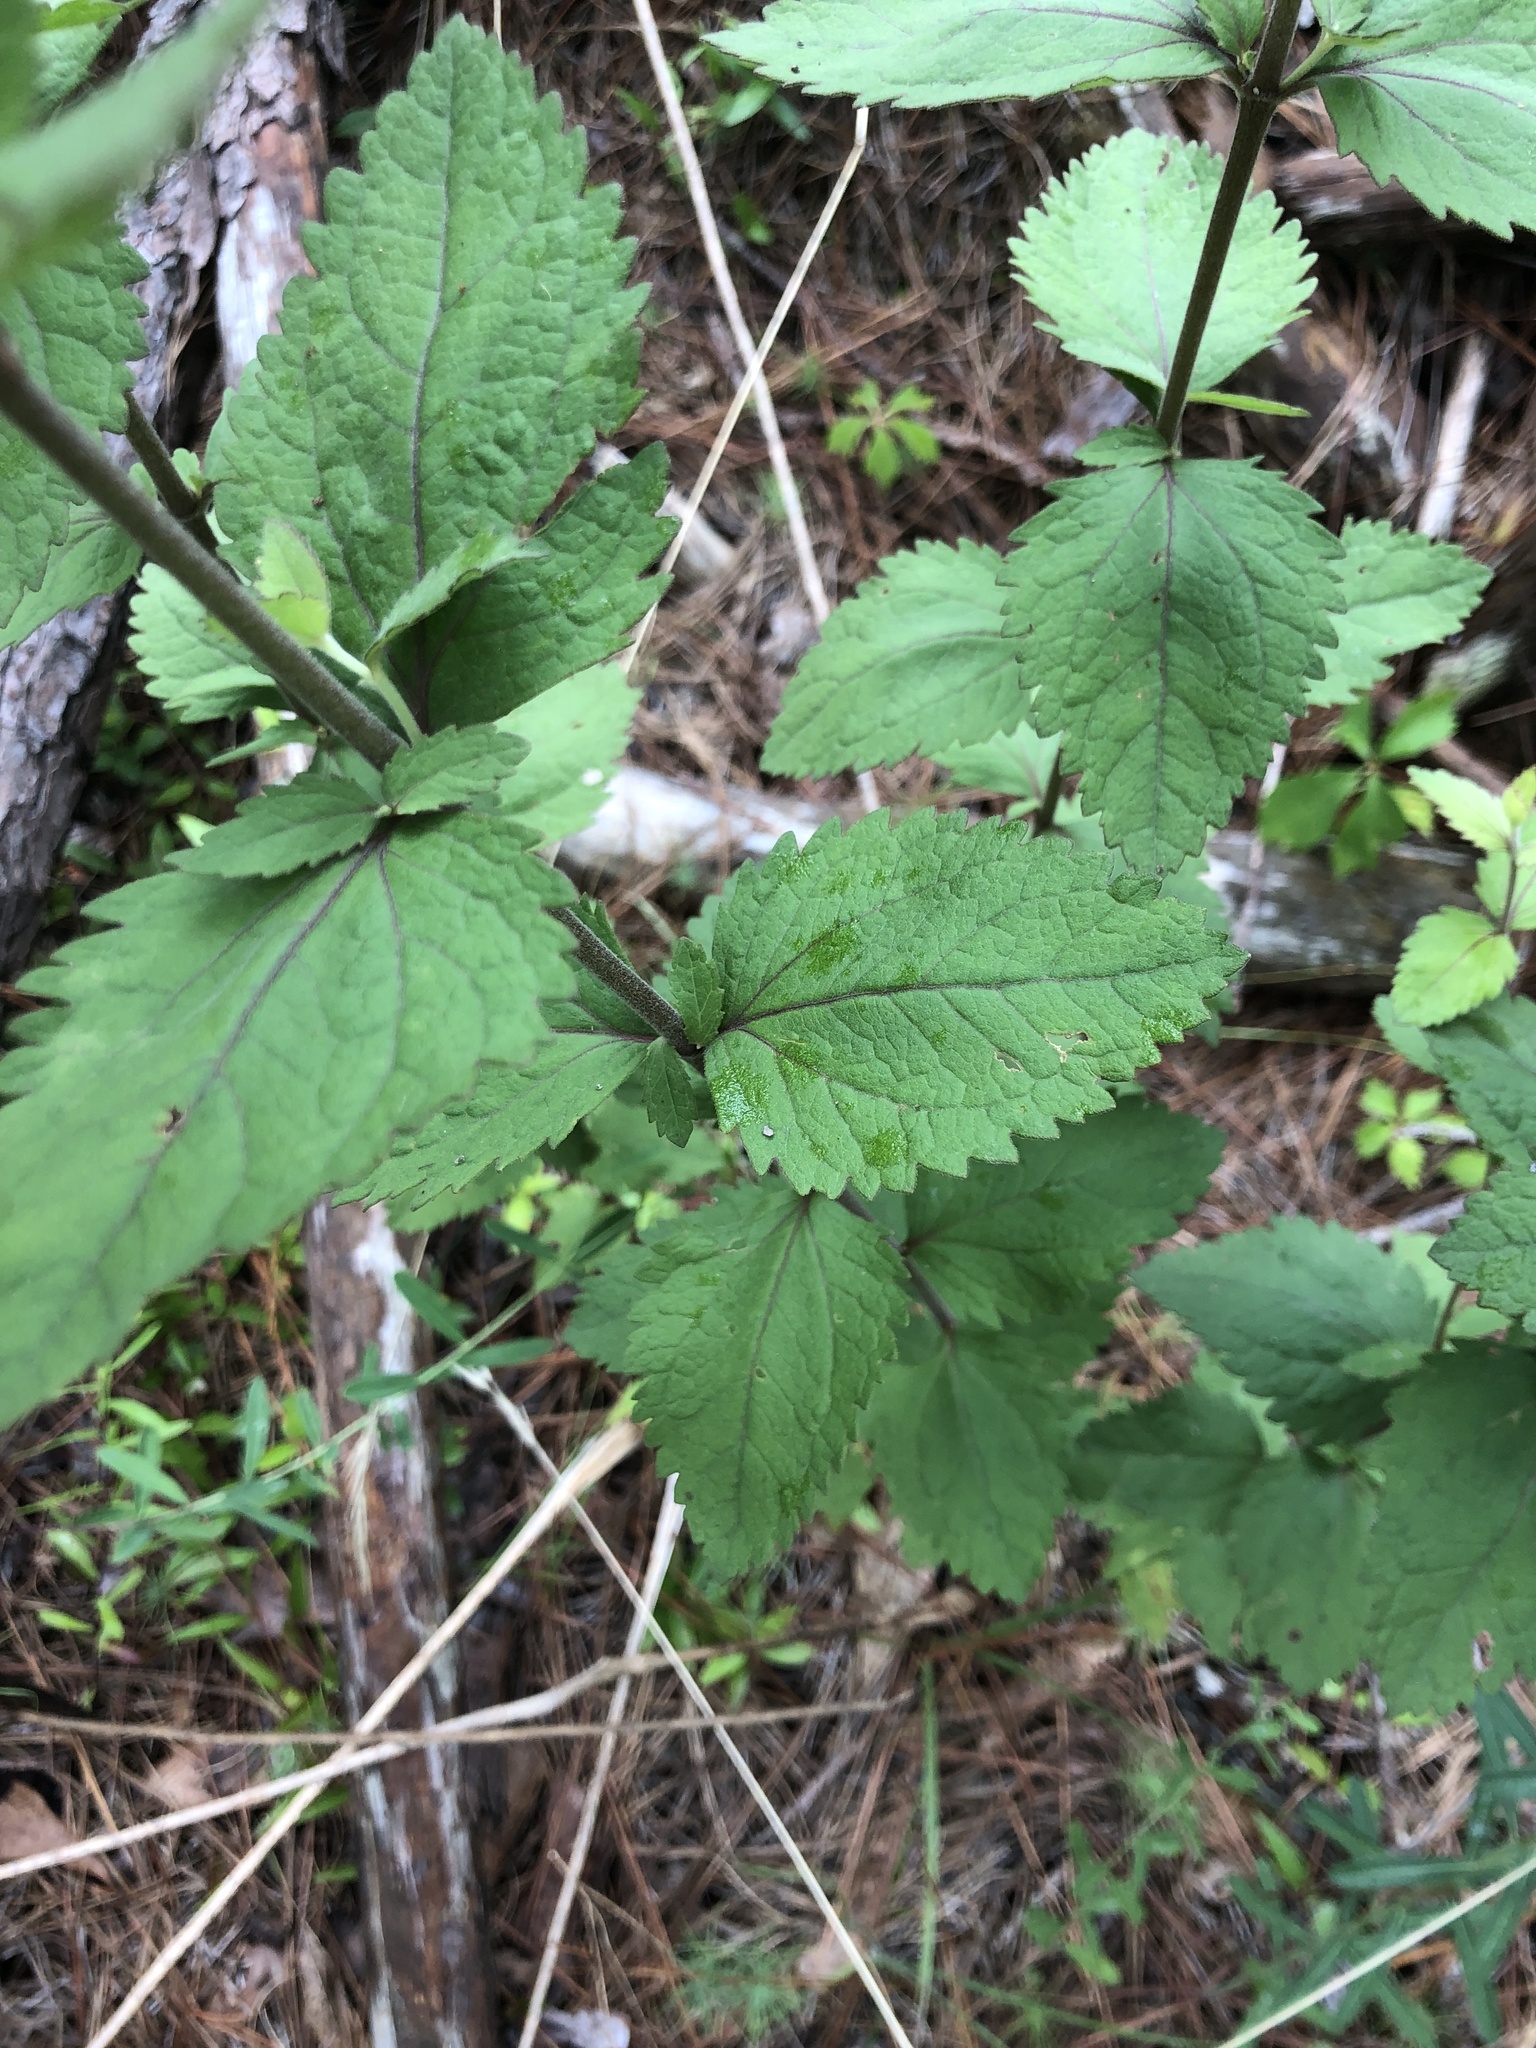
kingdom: Plantae
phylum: Tracheophyta
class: Magnoliopsida
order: Asterales
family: Asteraceae
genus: Eupatorium
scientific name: Eupatorium rotundifolium
